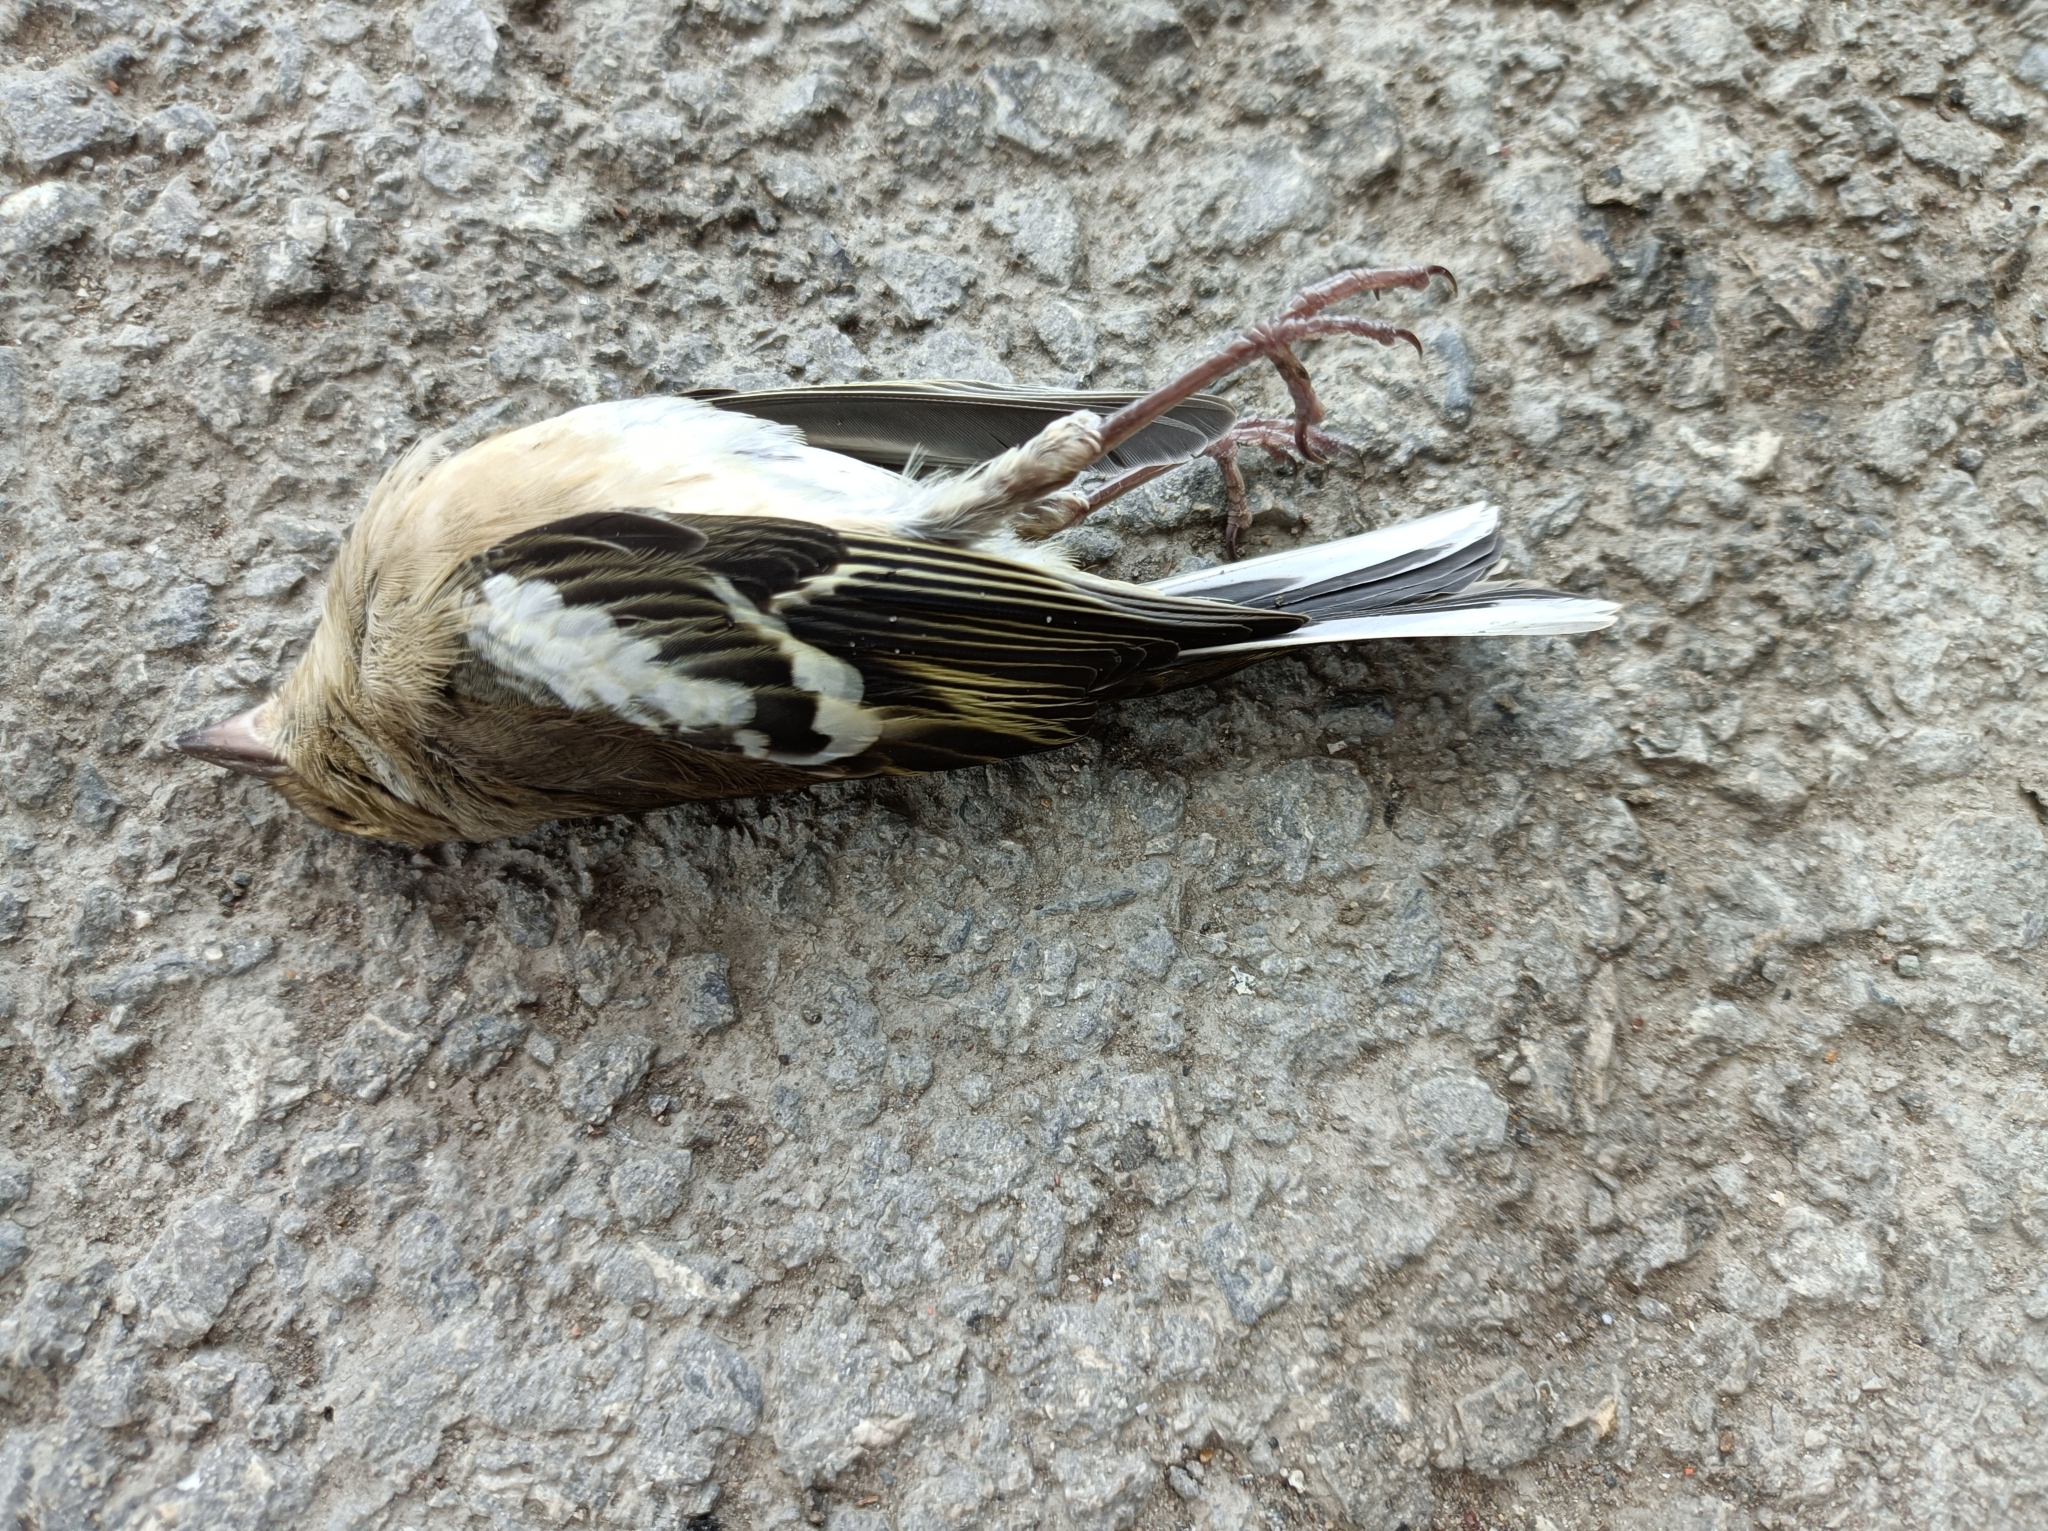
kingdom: Animalia
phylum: Chordata
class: Aves
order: Passeriformes
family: Fringillidae
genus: Fringilla
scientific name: Fringilla coelebs
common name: Common chaffinch
